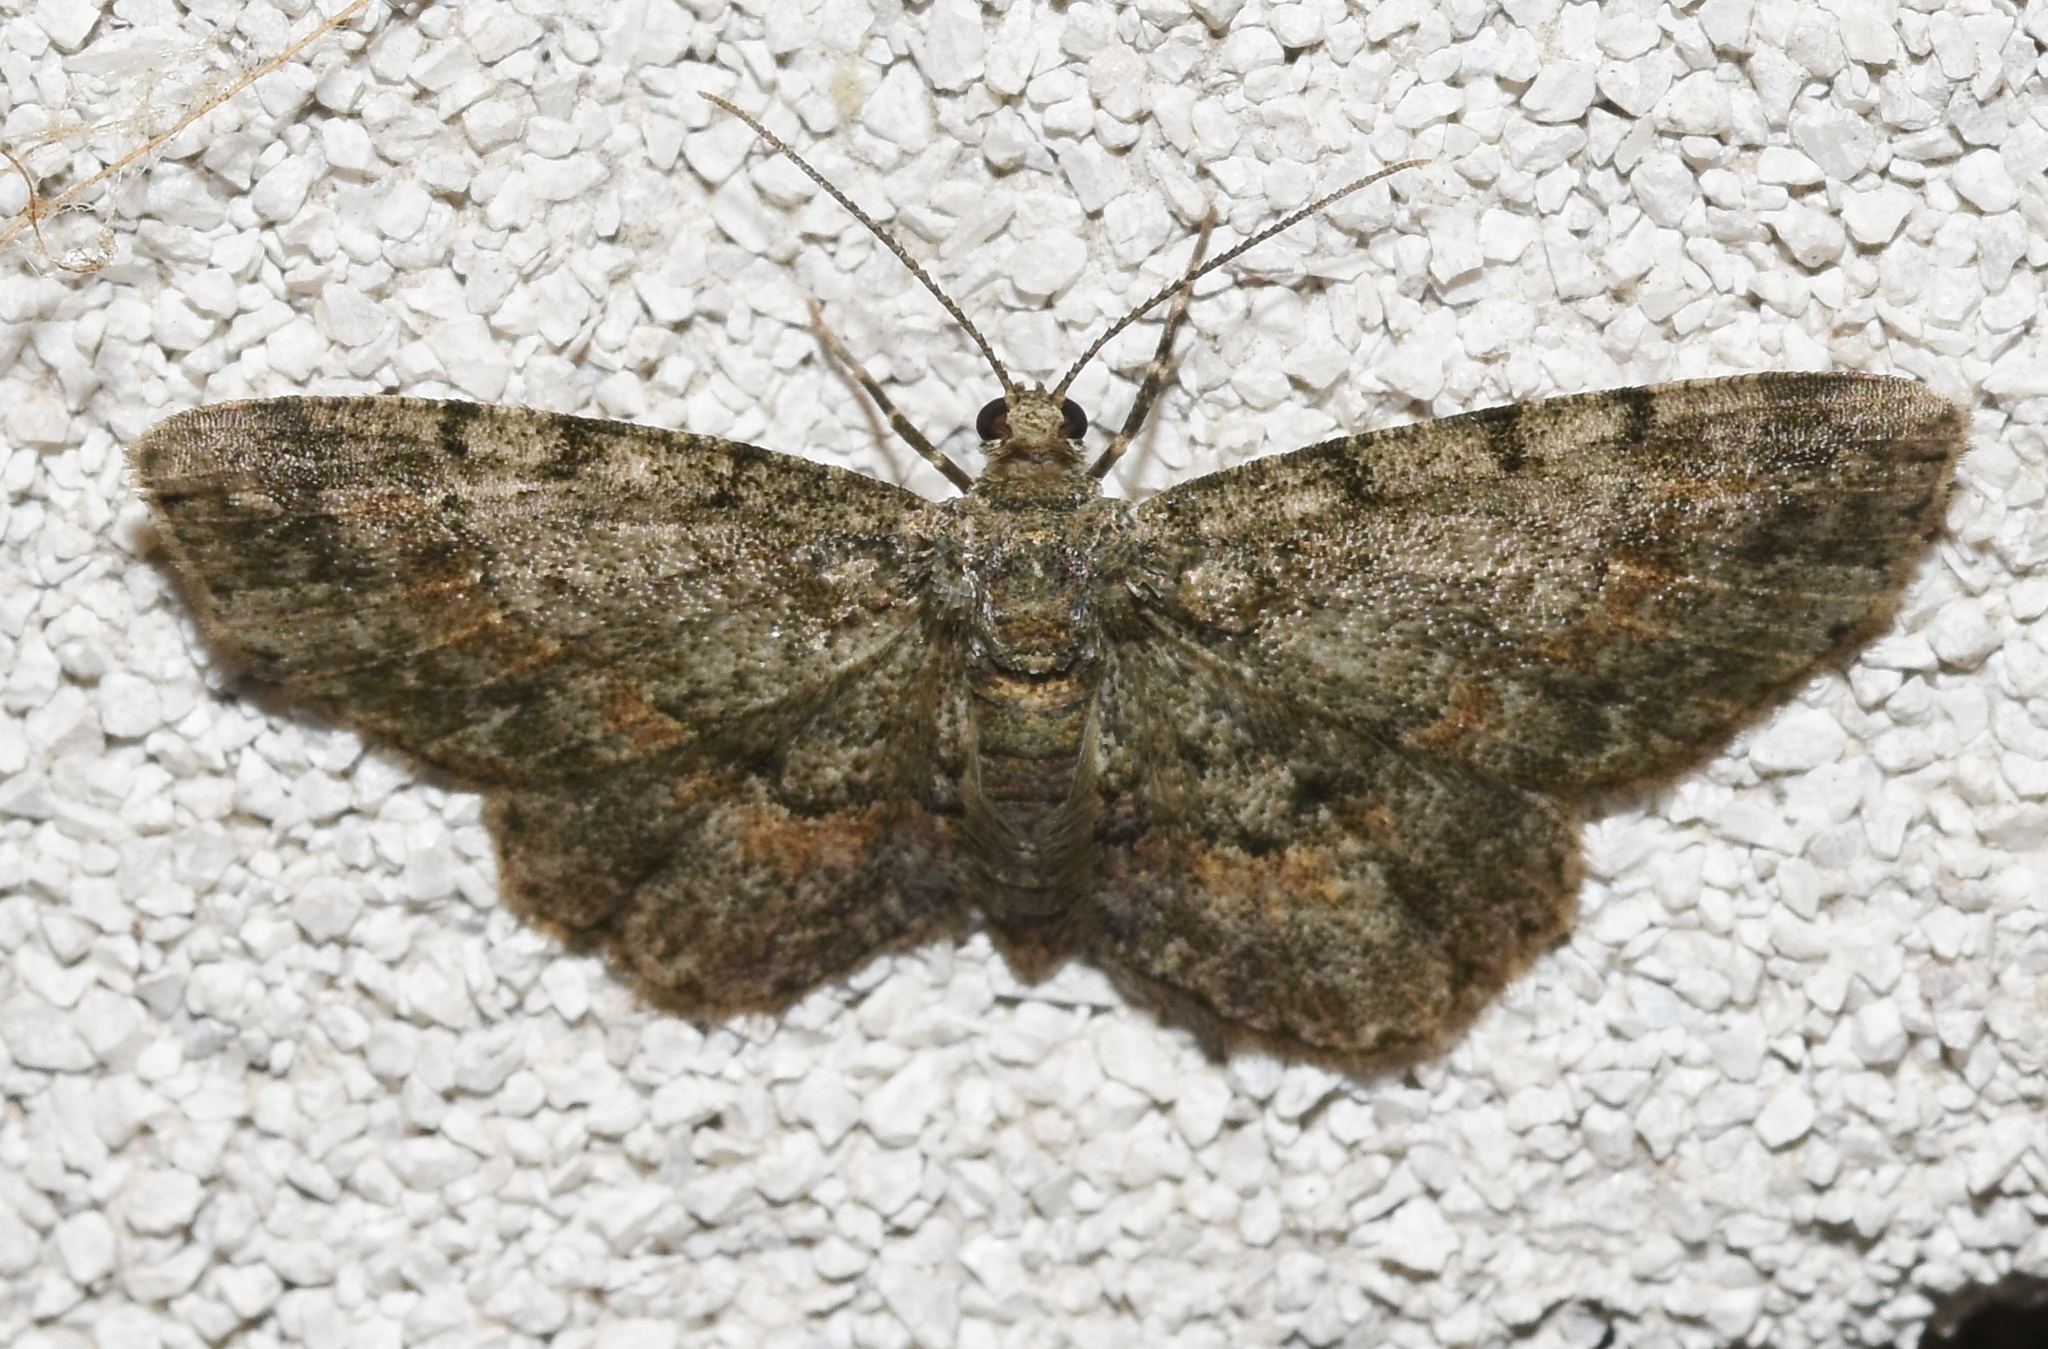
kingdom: Animalia
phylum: Arthropoda
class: Insecta
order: Lepidoptera
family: Geometridae
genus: Glenoides
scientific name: Glenoides texanaria
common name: Texas gray
